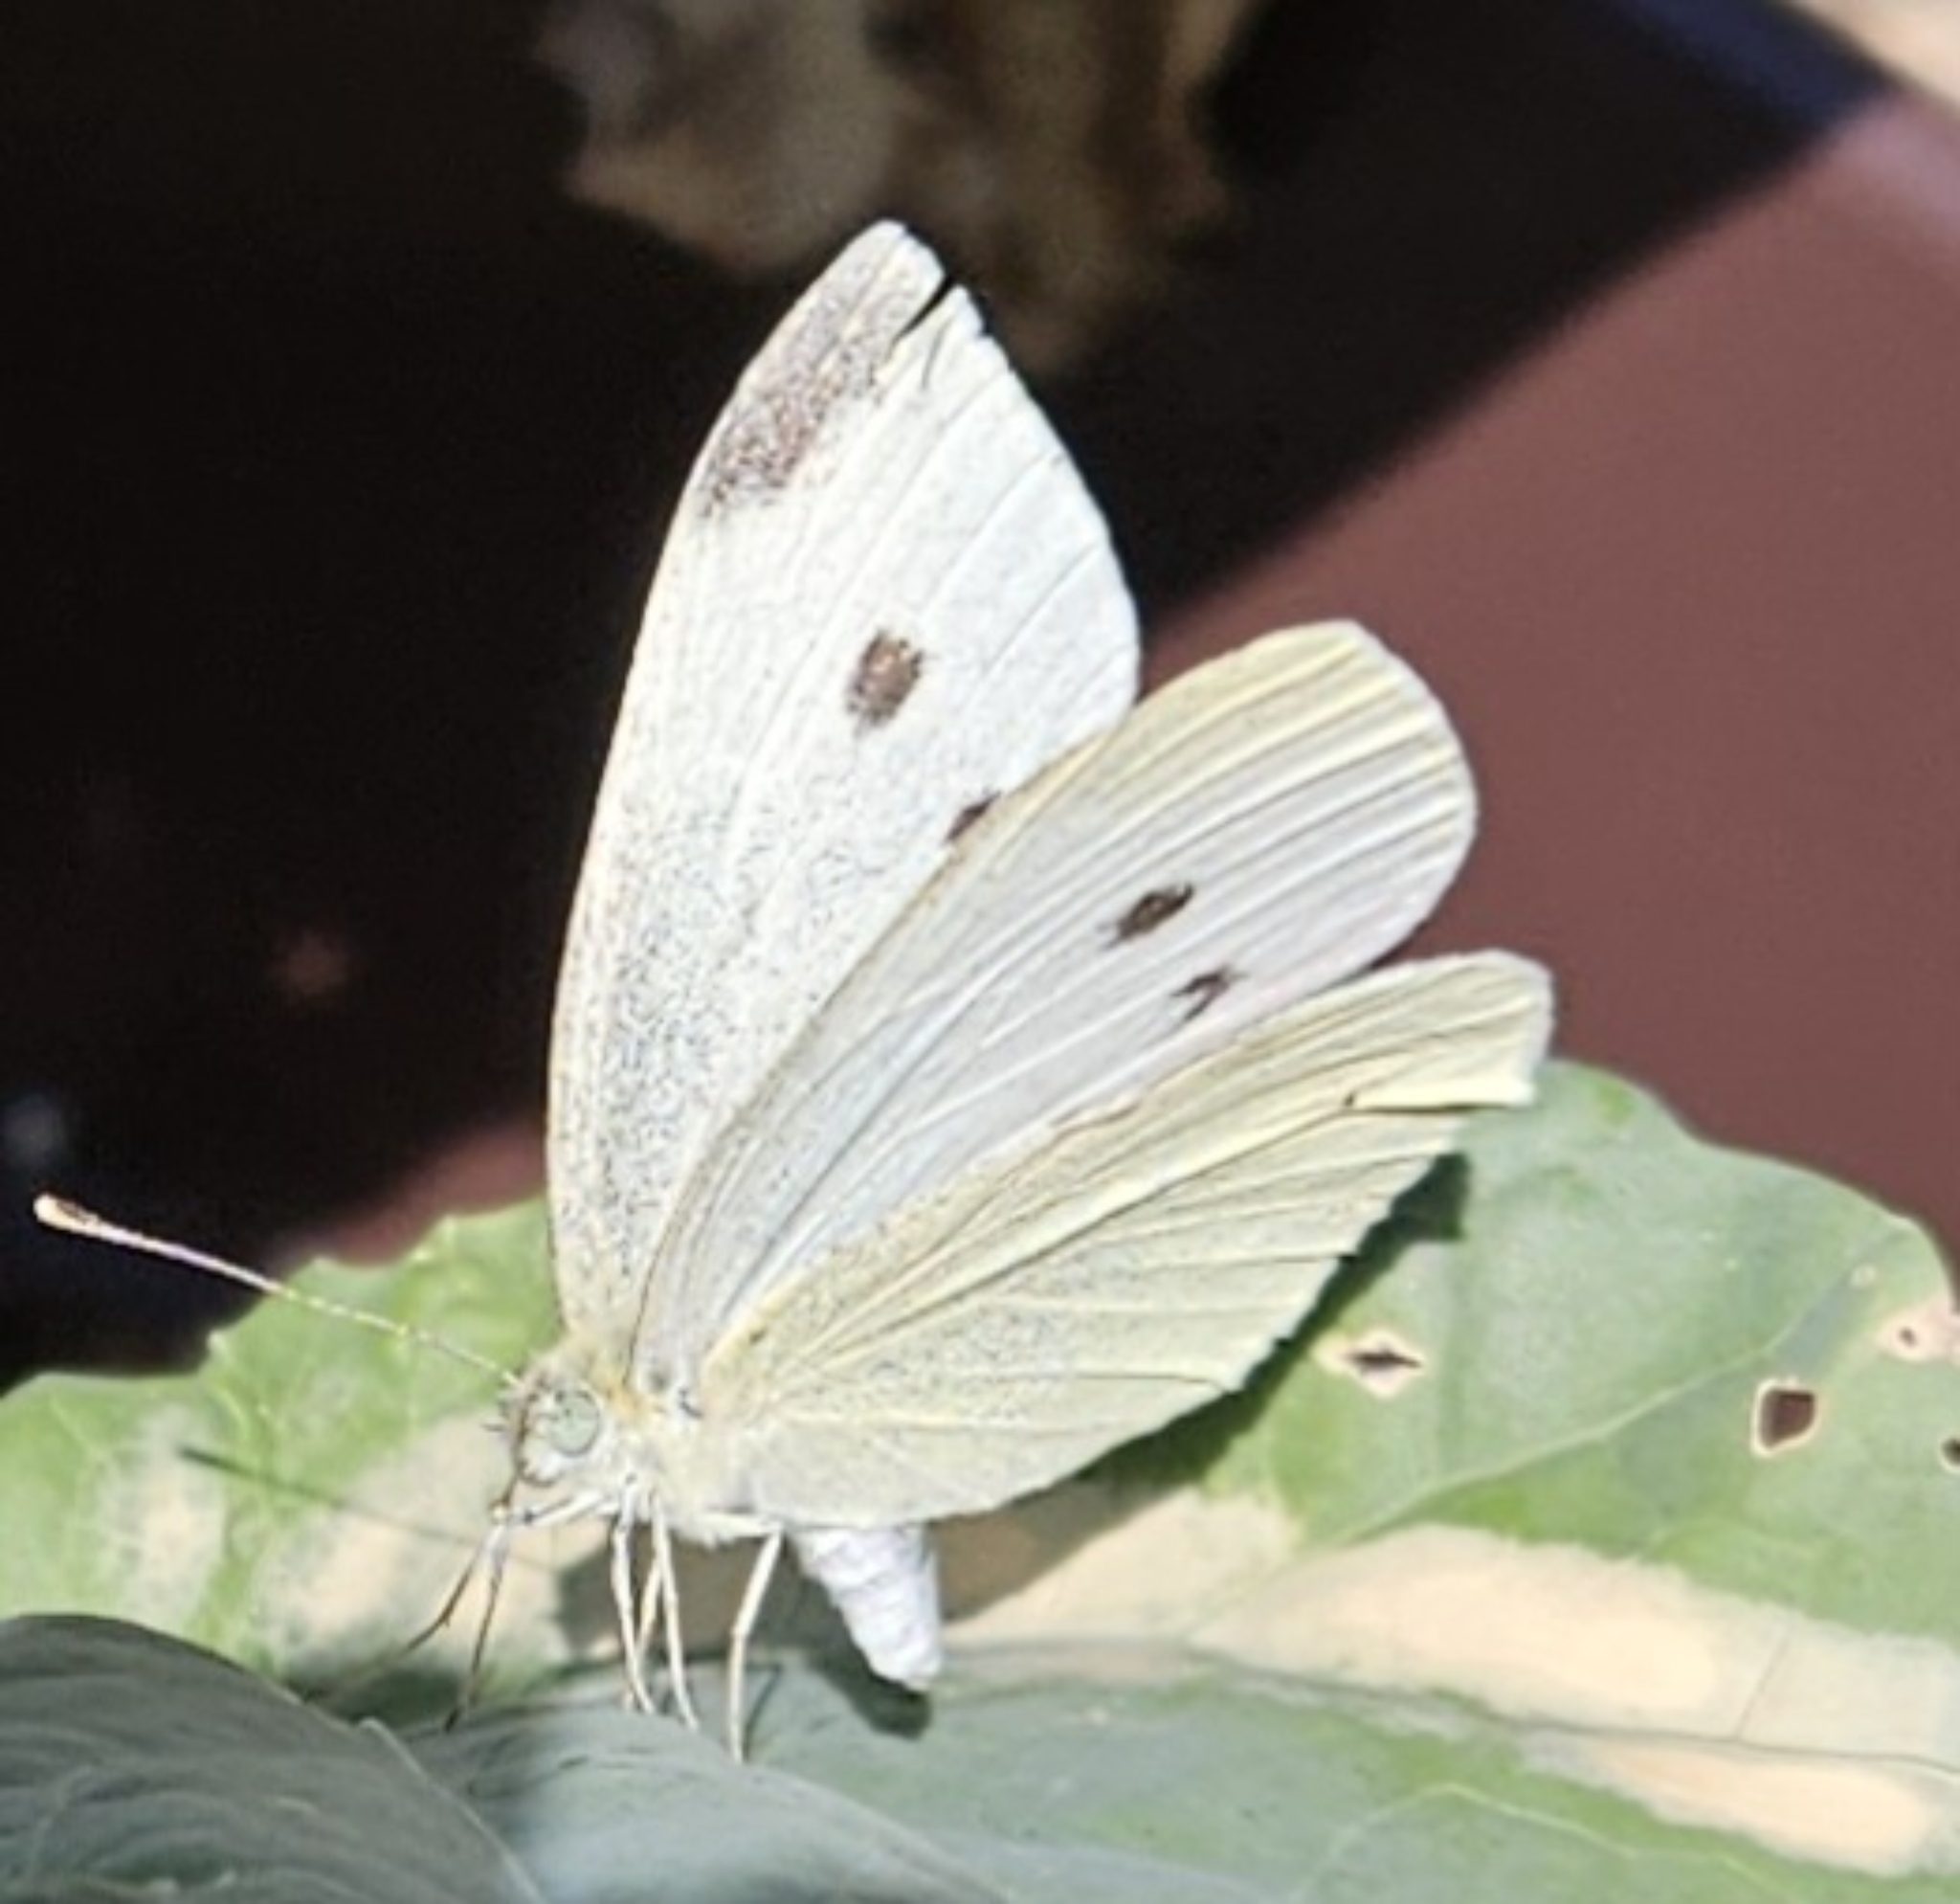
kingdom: Animalia
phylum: Arthropoda
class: Insecta
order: Lepidoptera
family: Pieridae
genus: Pieris
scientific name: Pieris rapae
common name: Small white
